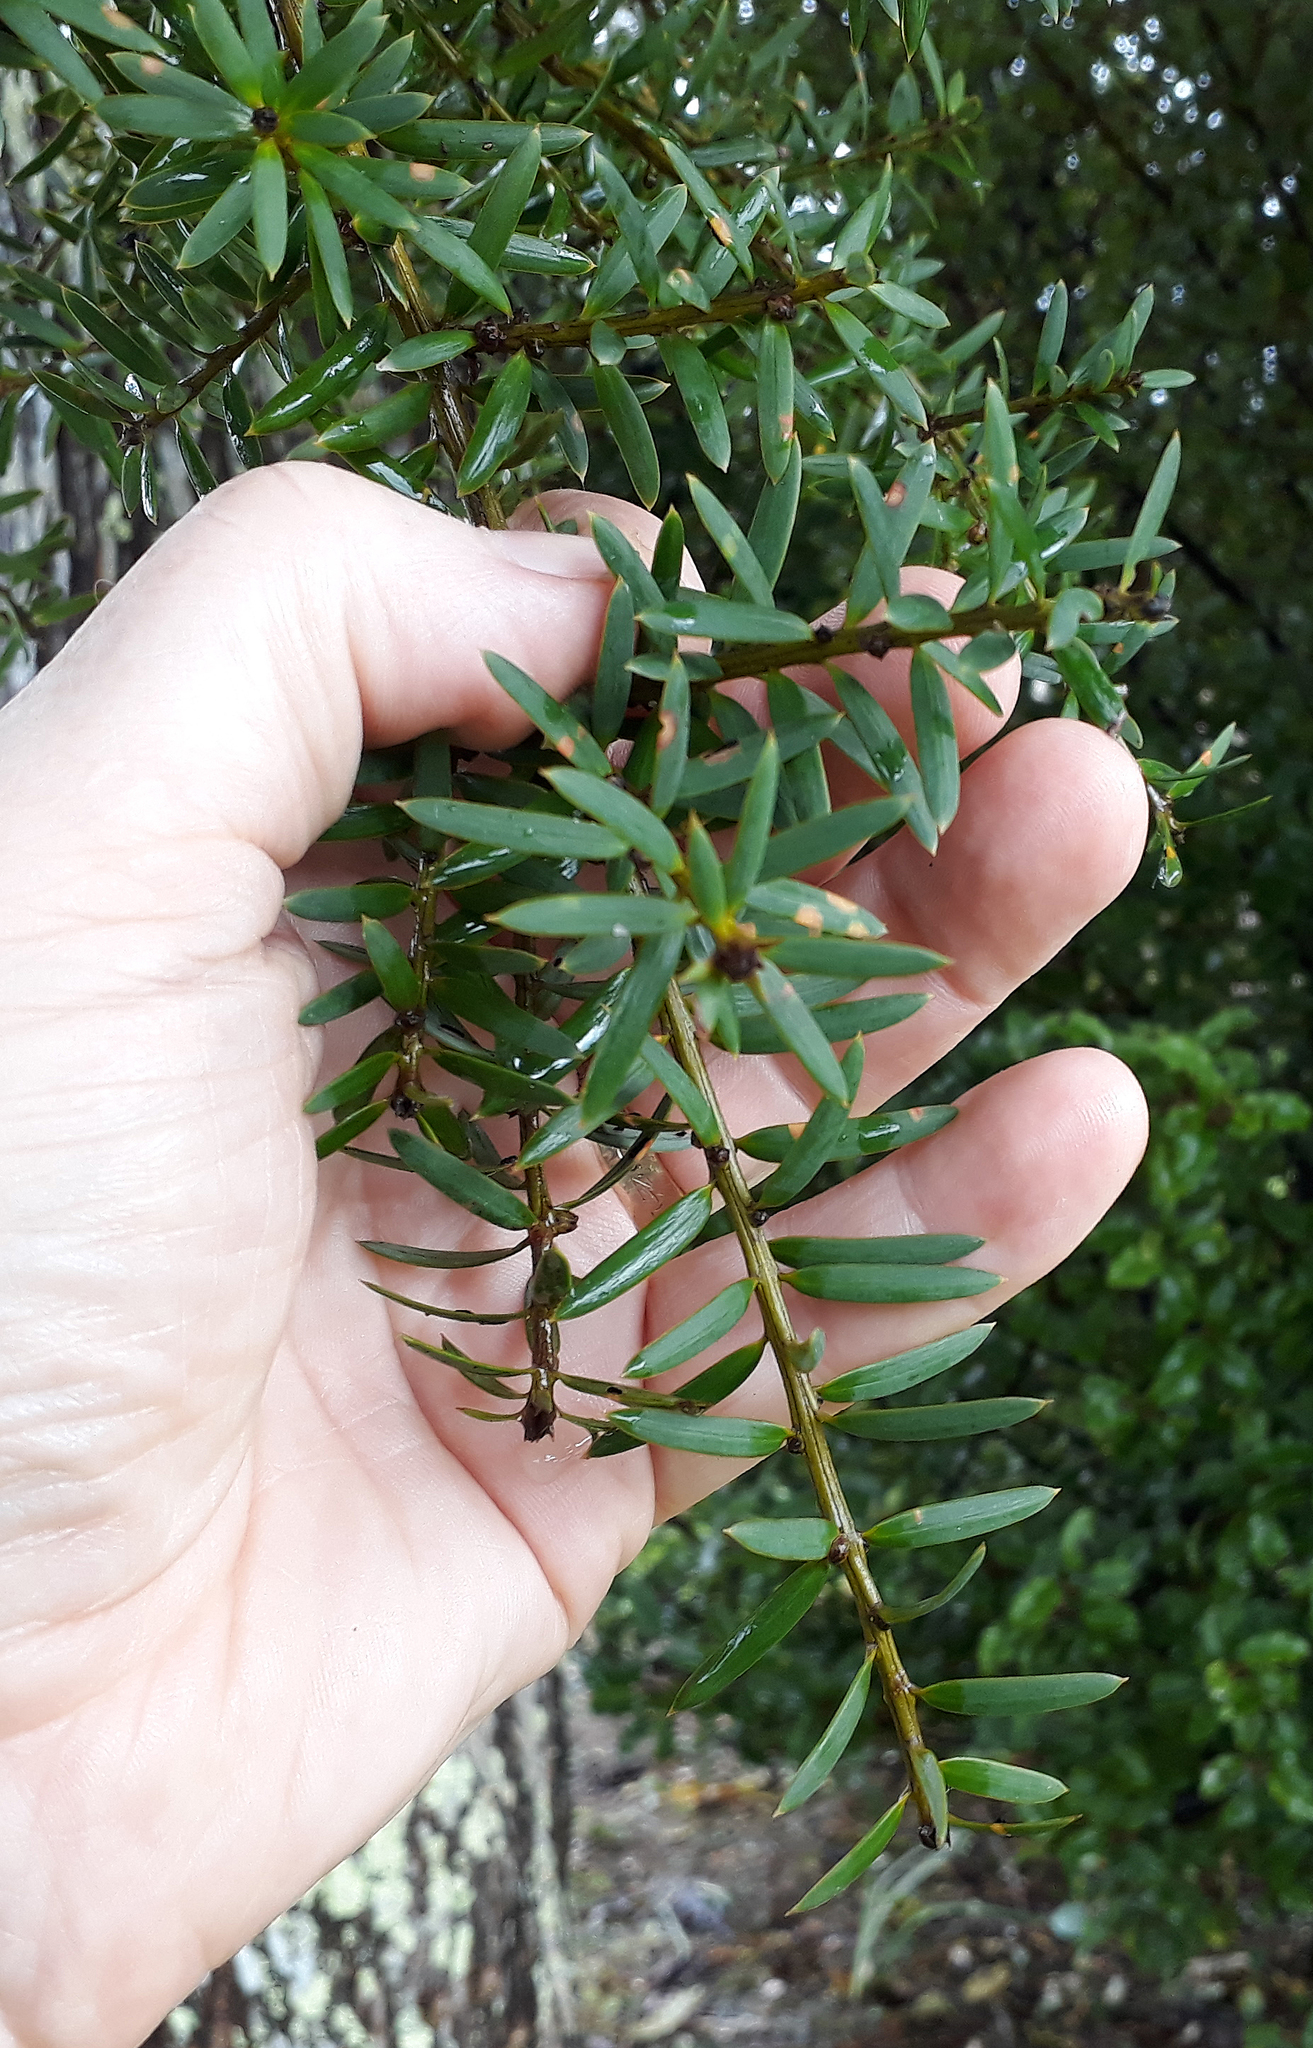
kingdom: Plantae
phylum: Tracheophyta
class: Pinopsida
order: Pinales
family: Podocarpaceae
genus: Podocarpus
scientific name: Podocarpus totara
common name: Totara
